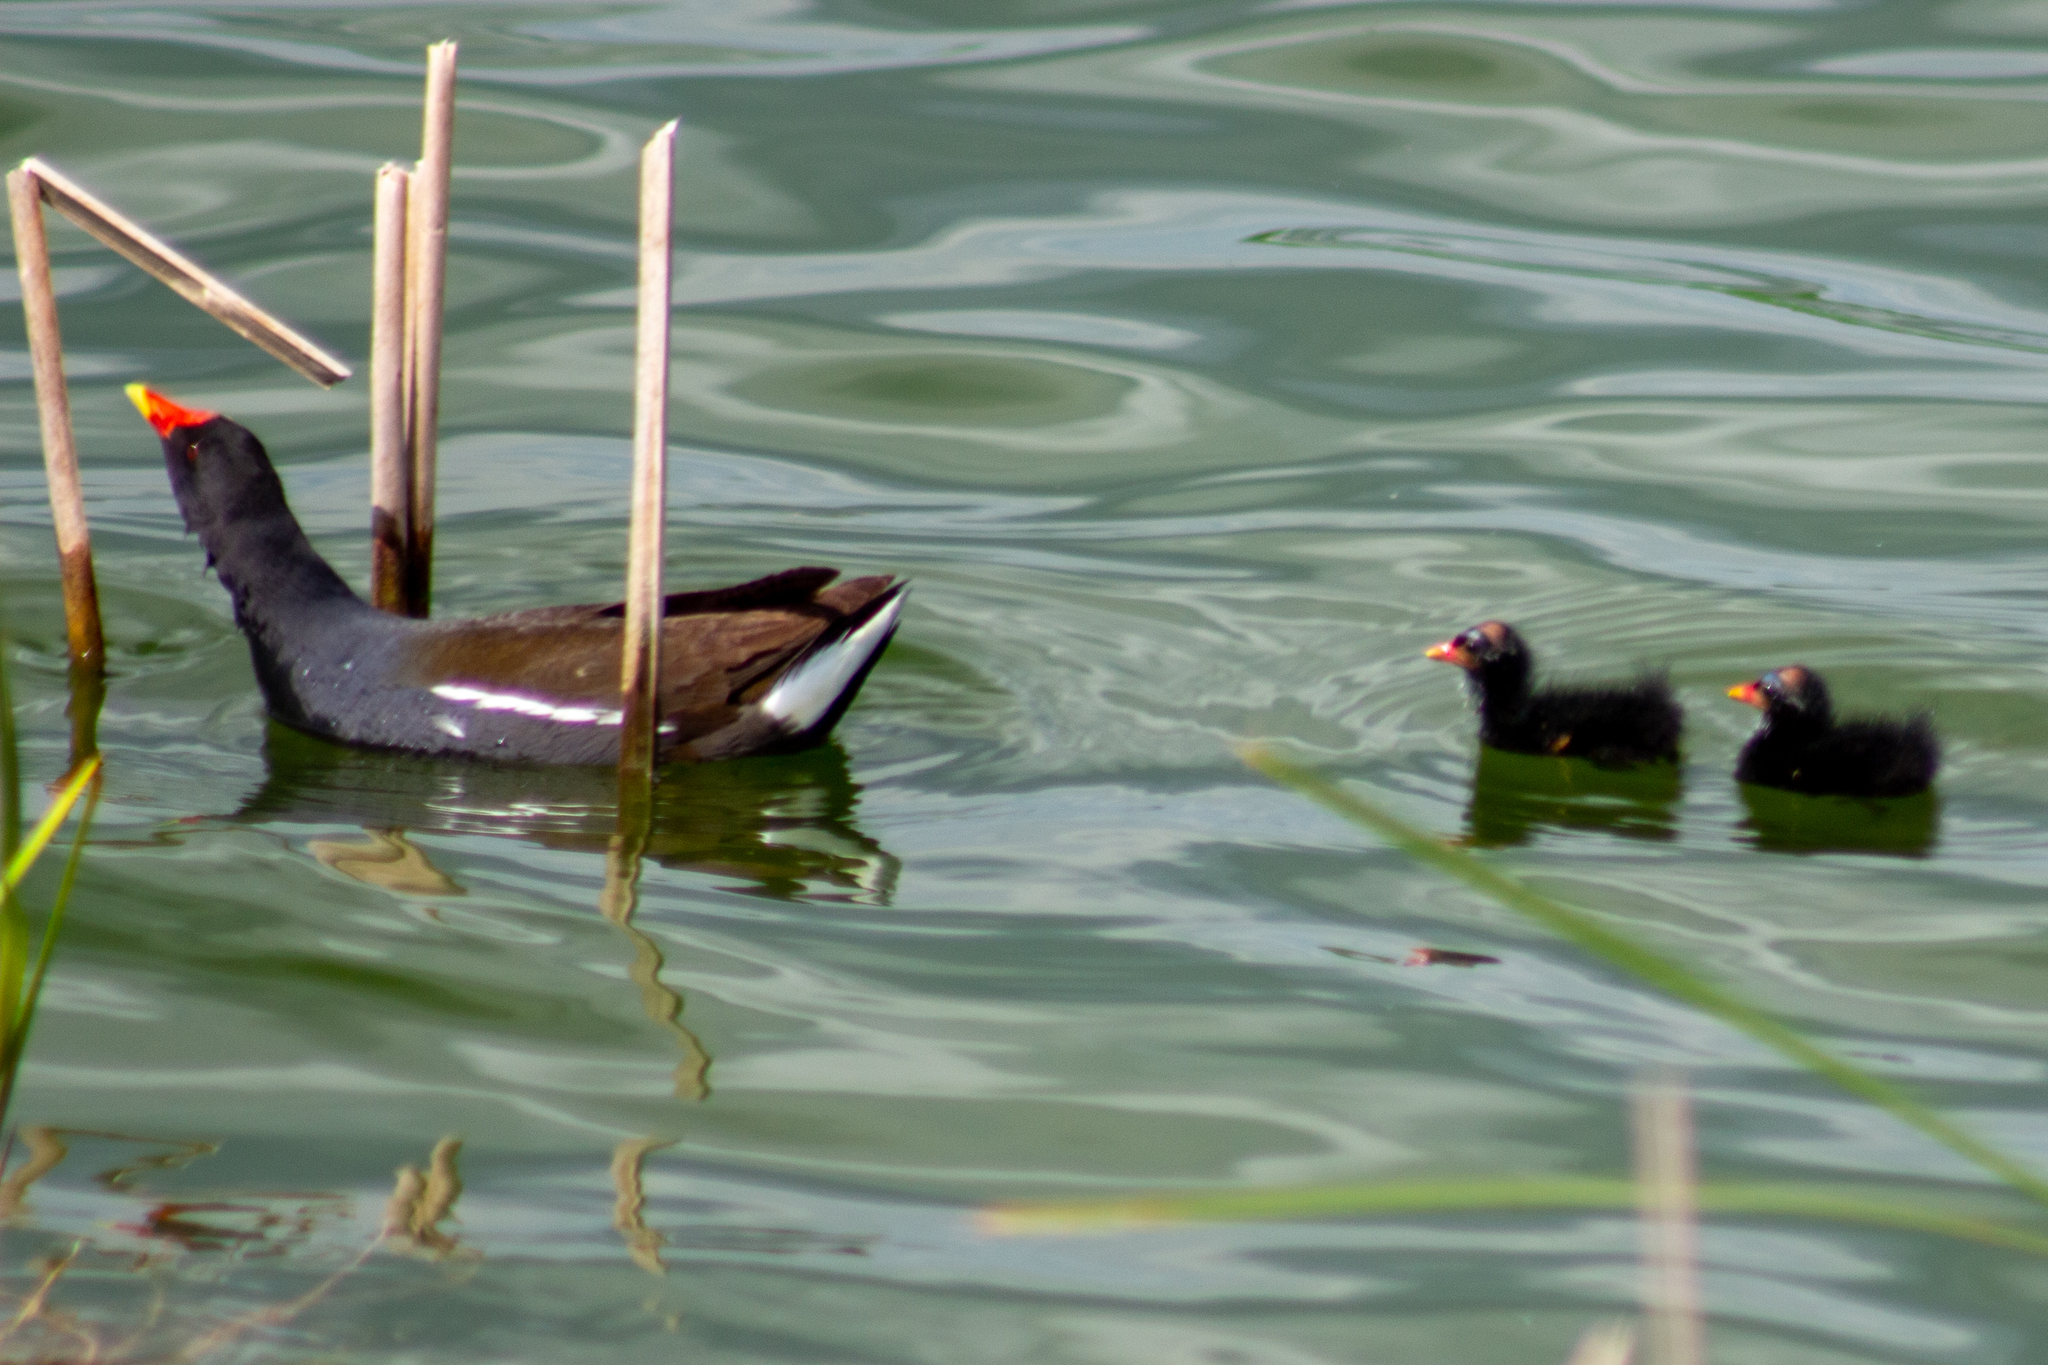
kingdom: Animalia
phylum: Chordata
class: Aves
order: Gruiformes
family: Rallidae
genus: Gallinula
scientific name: Gallinula chloropus
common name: Common moorhen
